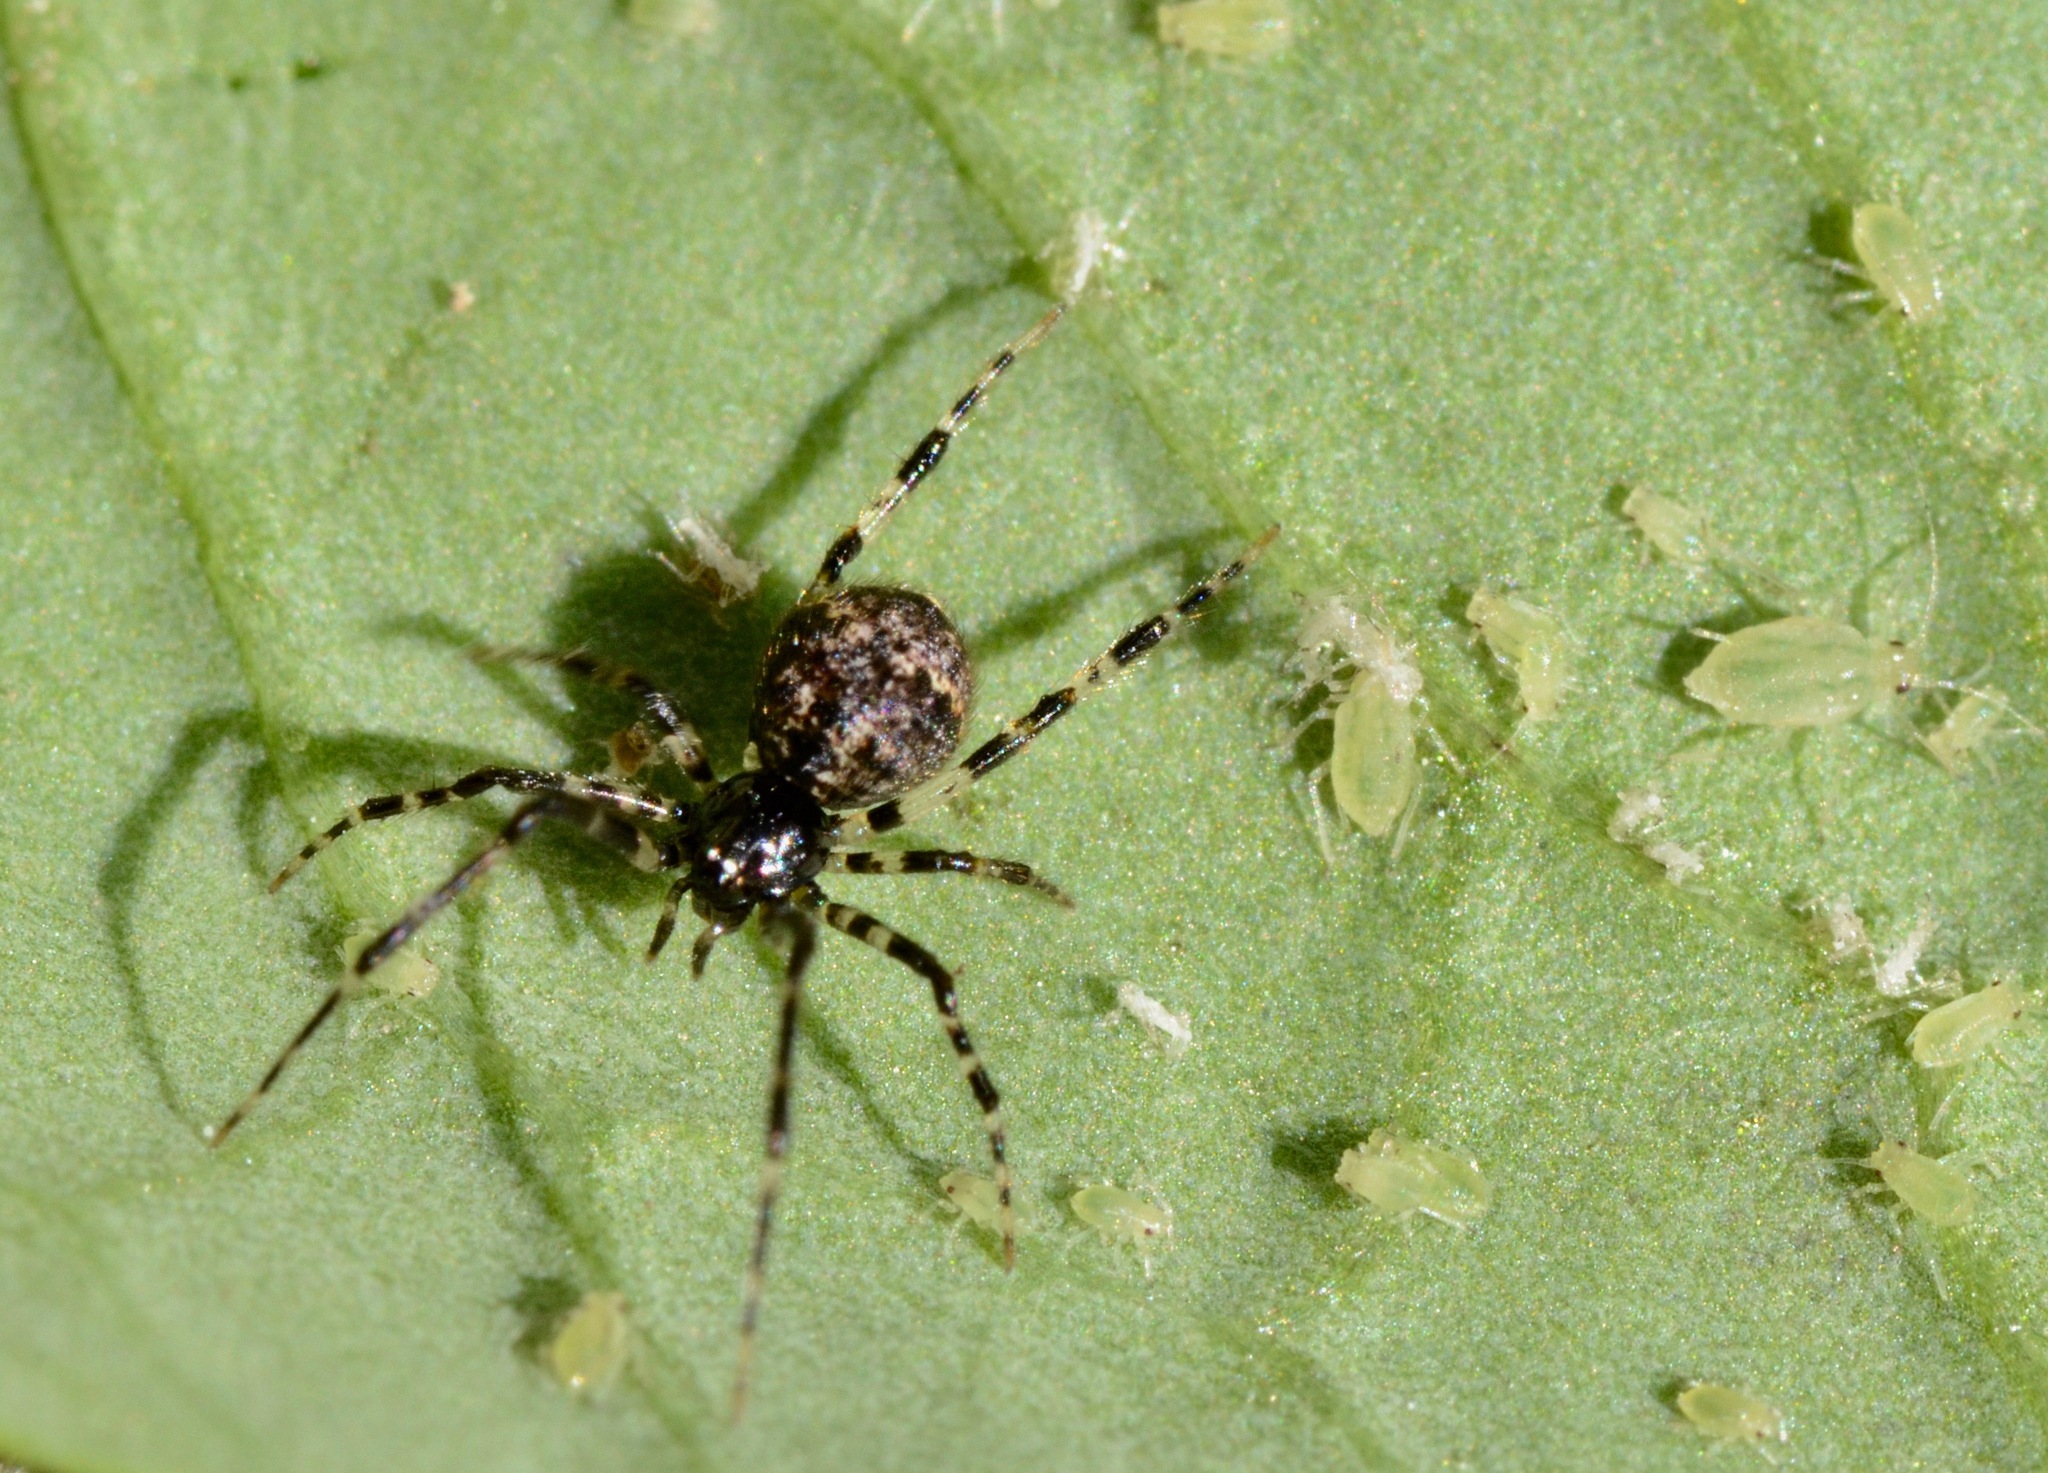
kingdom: Animalia
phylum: Arthropoda
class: Arachnida
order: Araneae
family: Theridiidae
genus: Cryptachaea
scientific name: Cryptachaea blattea
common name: Theridiid spider
